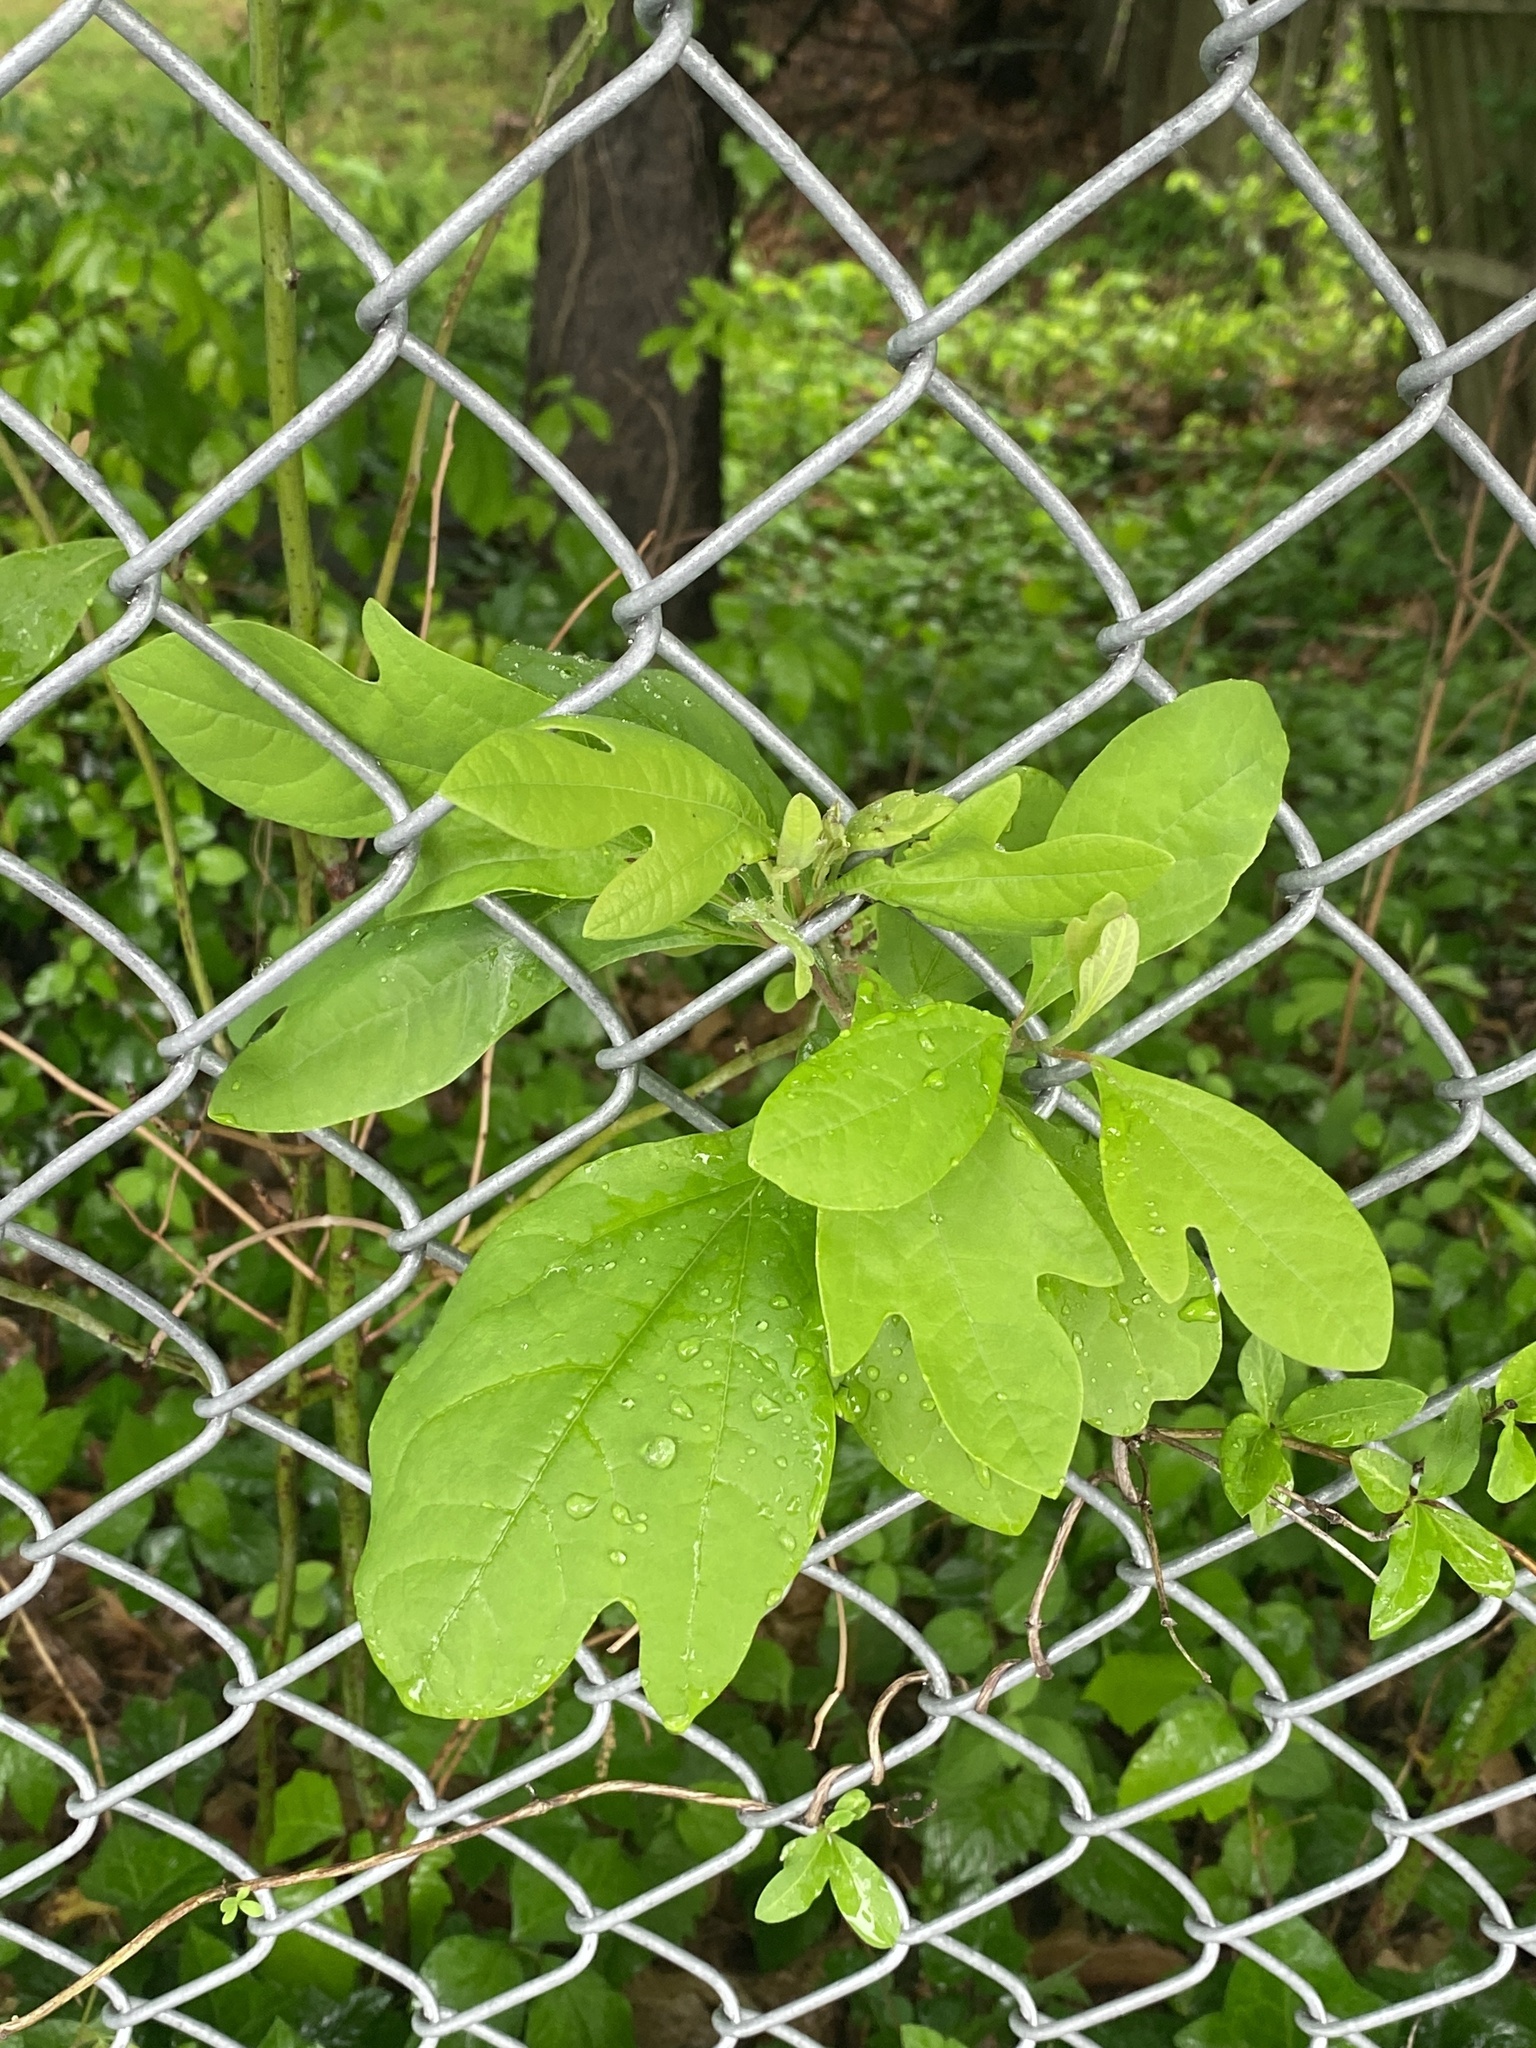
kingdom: Plantae
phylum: Tracheophyta
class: Magnoliopsida
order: Laurales
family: Lauraceae
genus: Sassafras
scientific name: Sassafras albidum
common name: Sassafras
